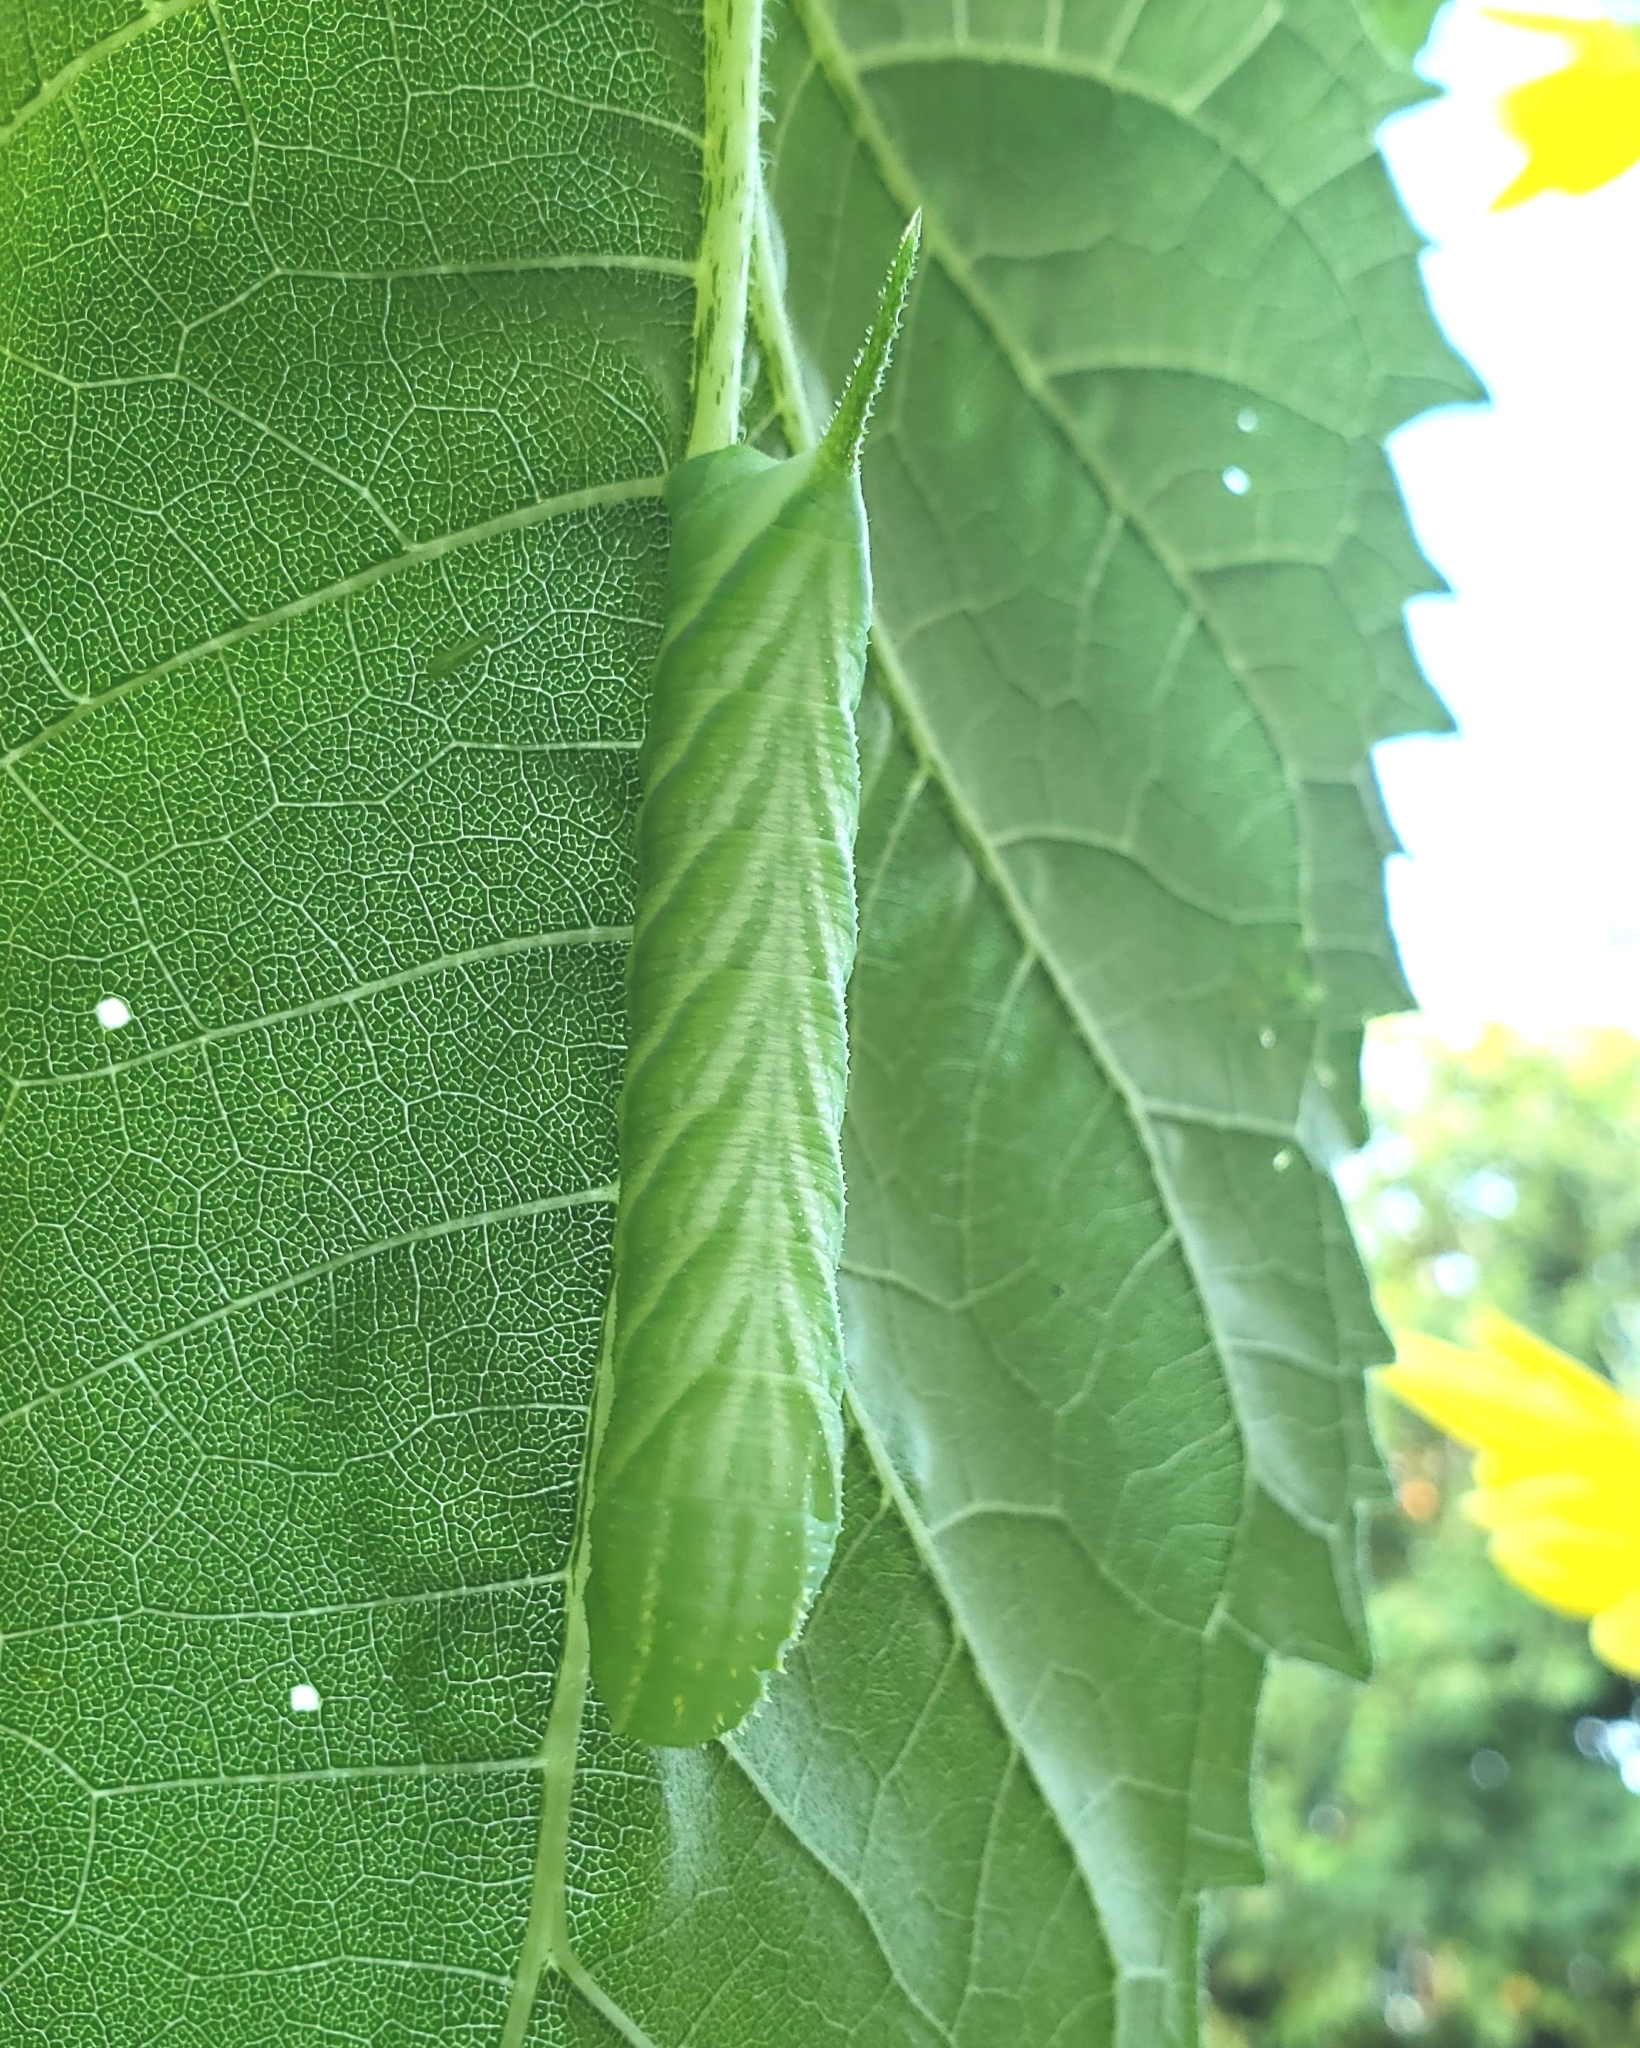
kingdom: Animalia
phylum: Arthropoda
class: Insecta
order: Lepidoptera
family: Sphingidae
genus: Manduca
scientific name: Manduca rustica
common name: Rustic sphinx
